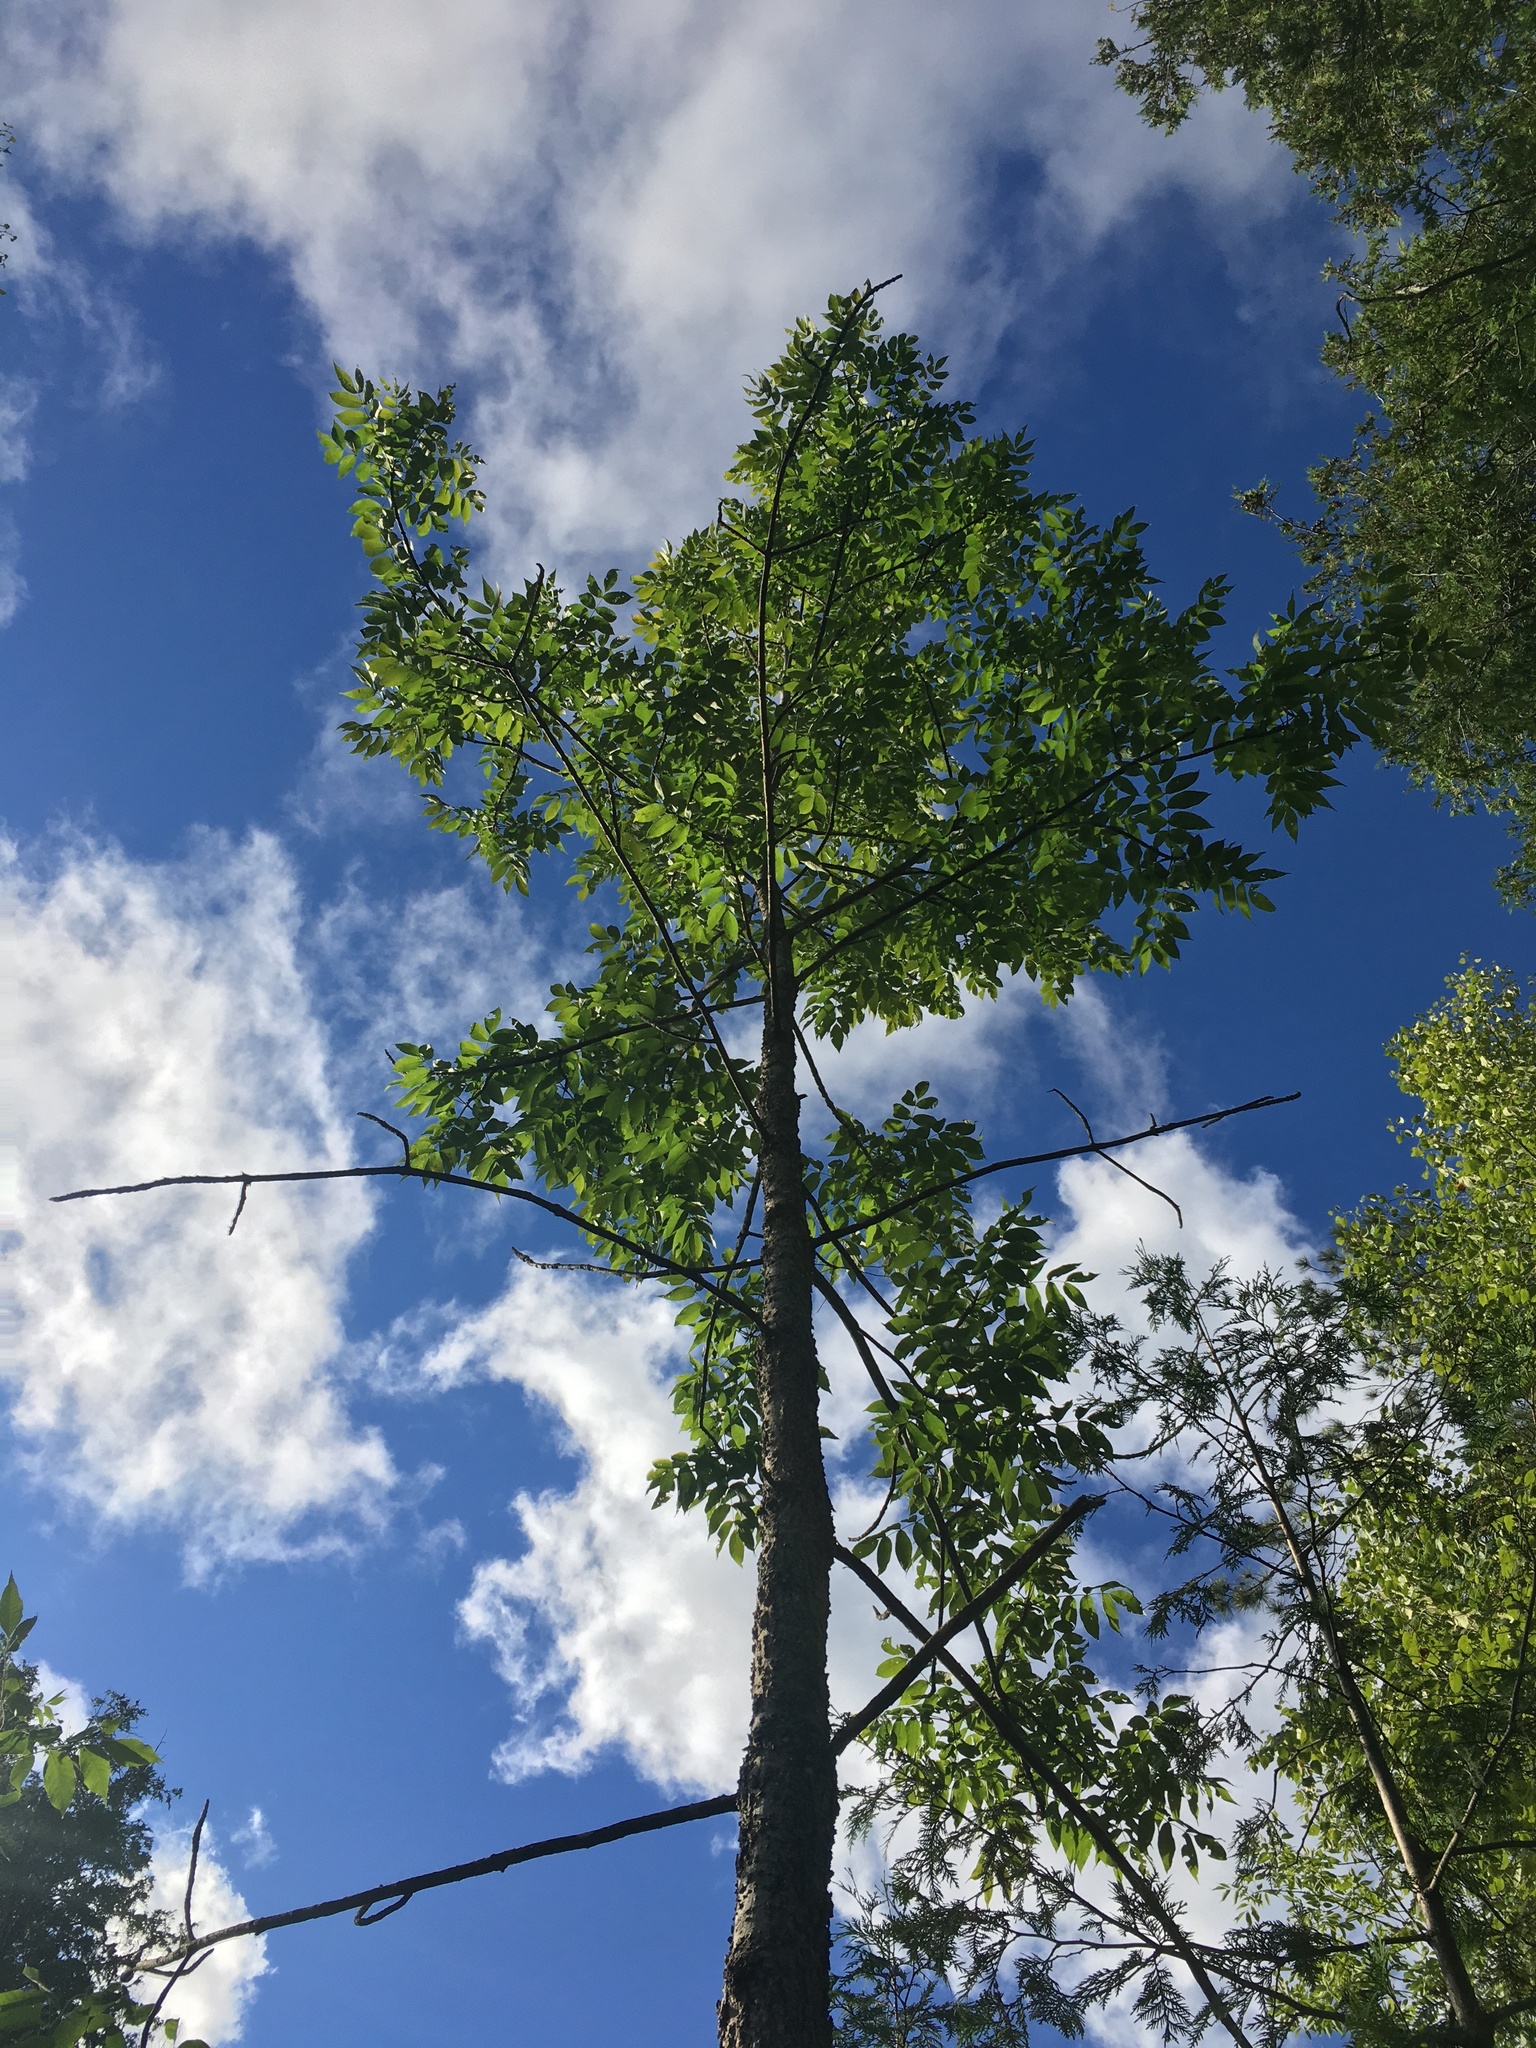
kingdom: Plantae
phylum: Tracheophyta
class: Magnoliopsida
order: Lamiales
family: Oleaceae
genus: Fraxinus
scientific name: Fraxinus nigra
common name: Black ash
